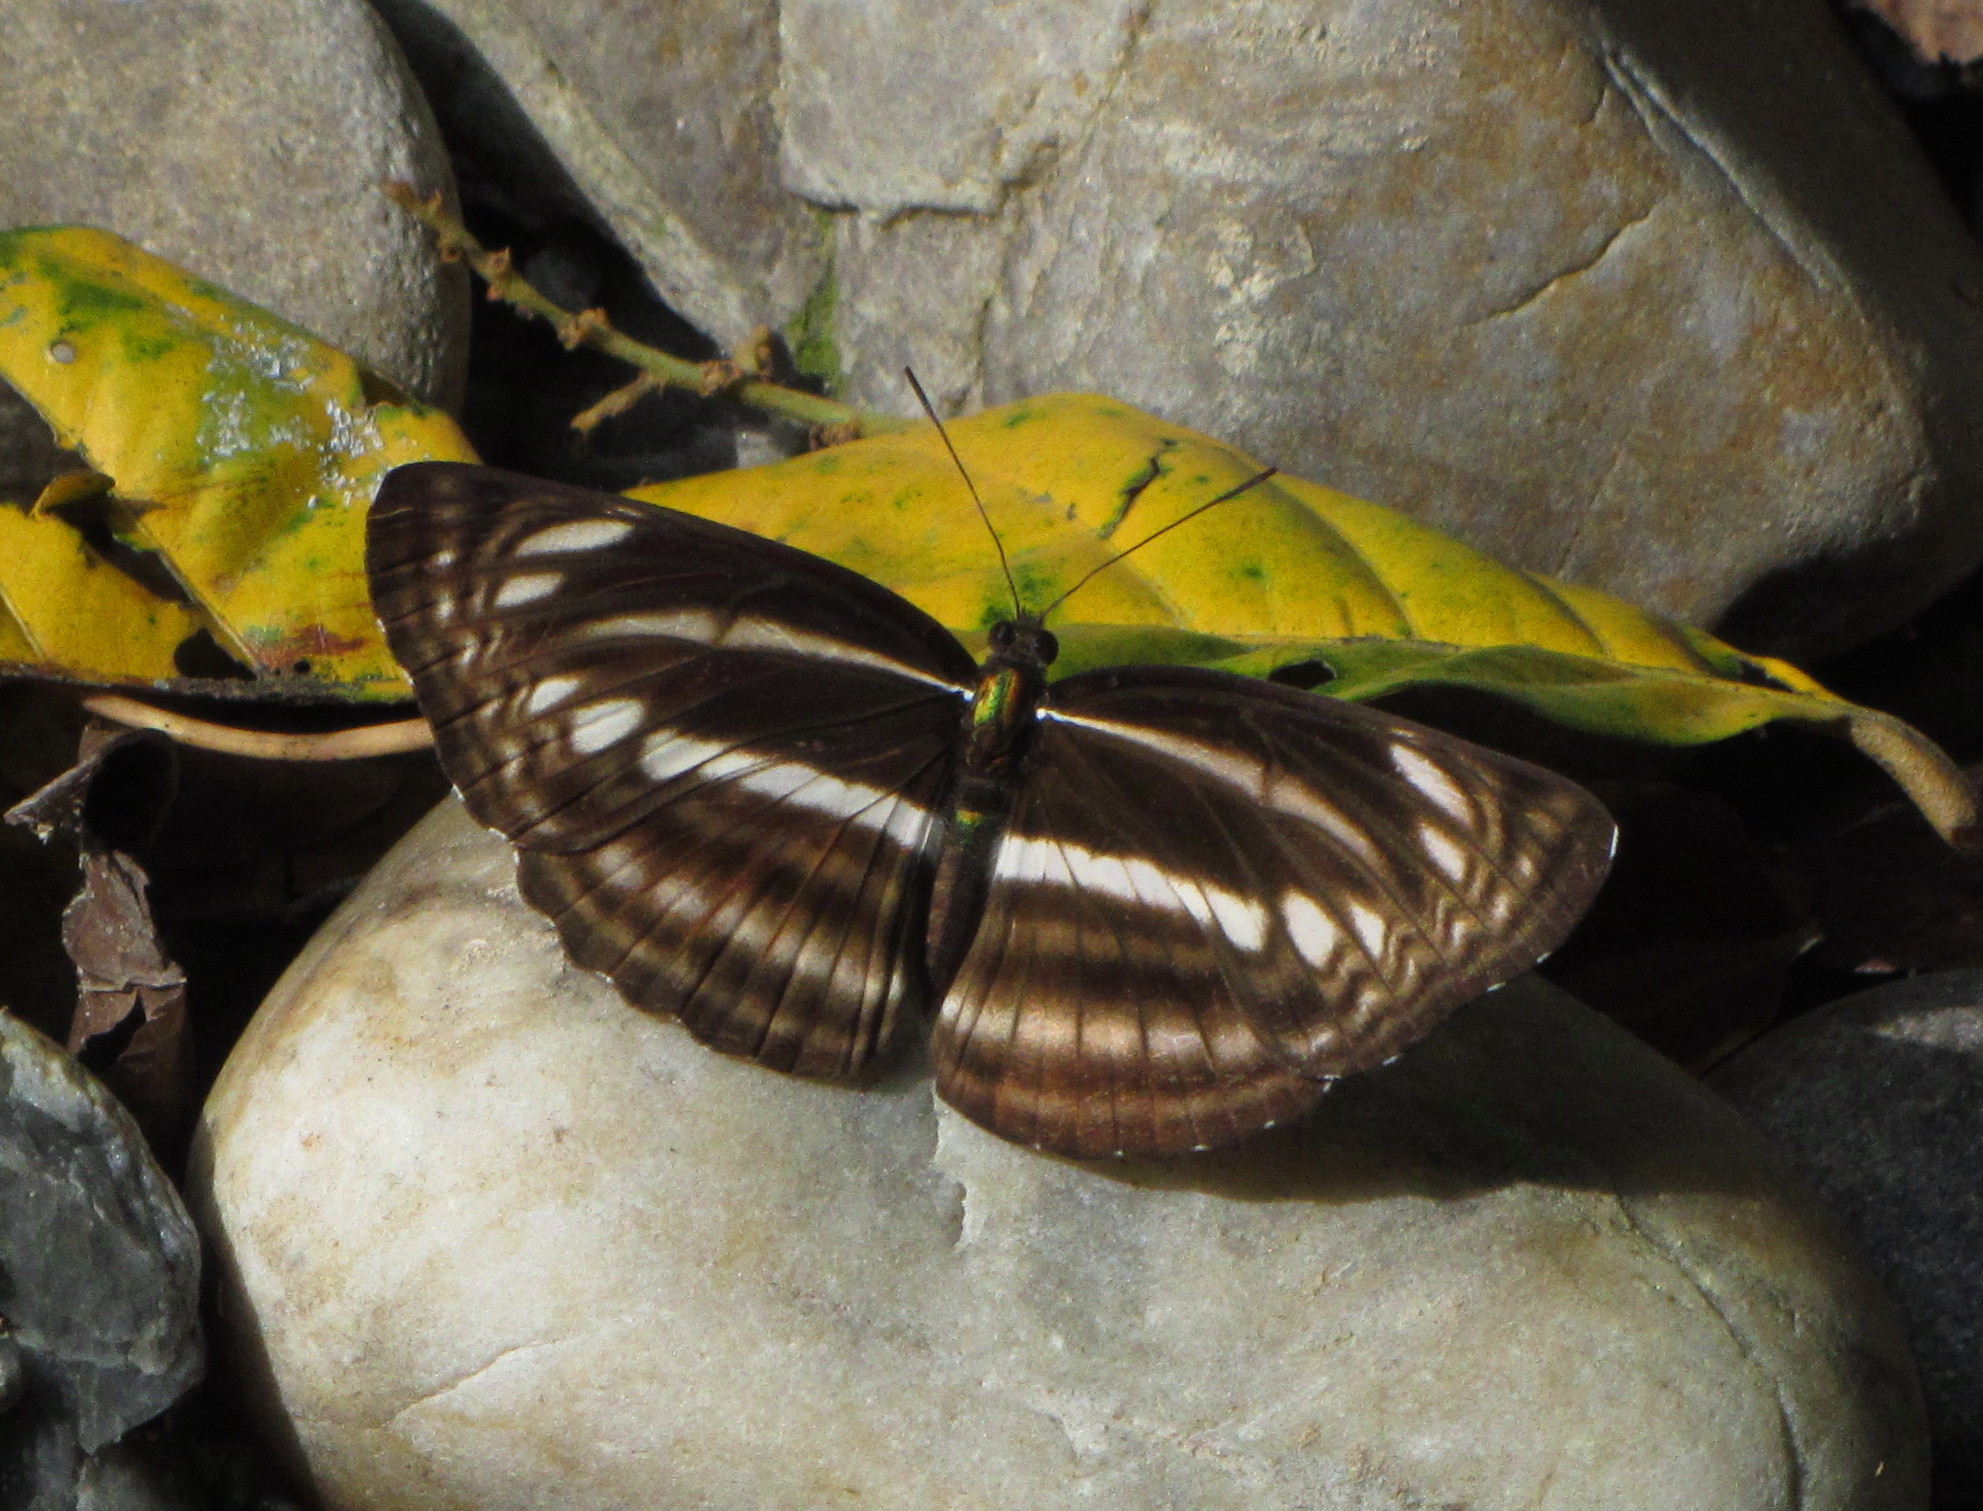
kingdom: Animalia
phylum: Arthropoda
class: Insecta
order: Lepidoptera
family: Nymphalidae
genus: Neptis
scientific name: Neptis cartica
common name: Plain sailer
